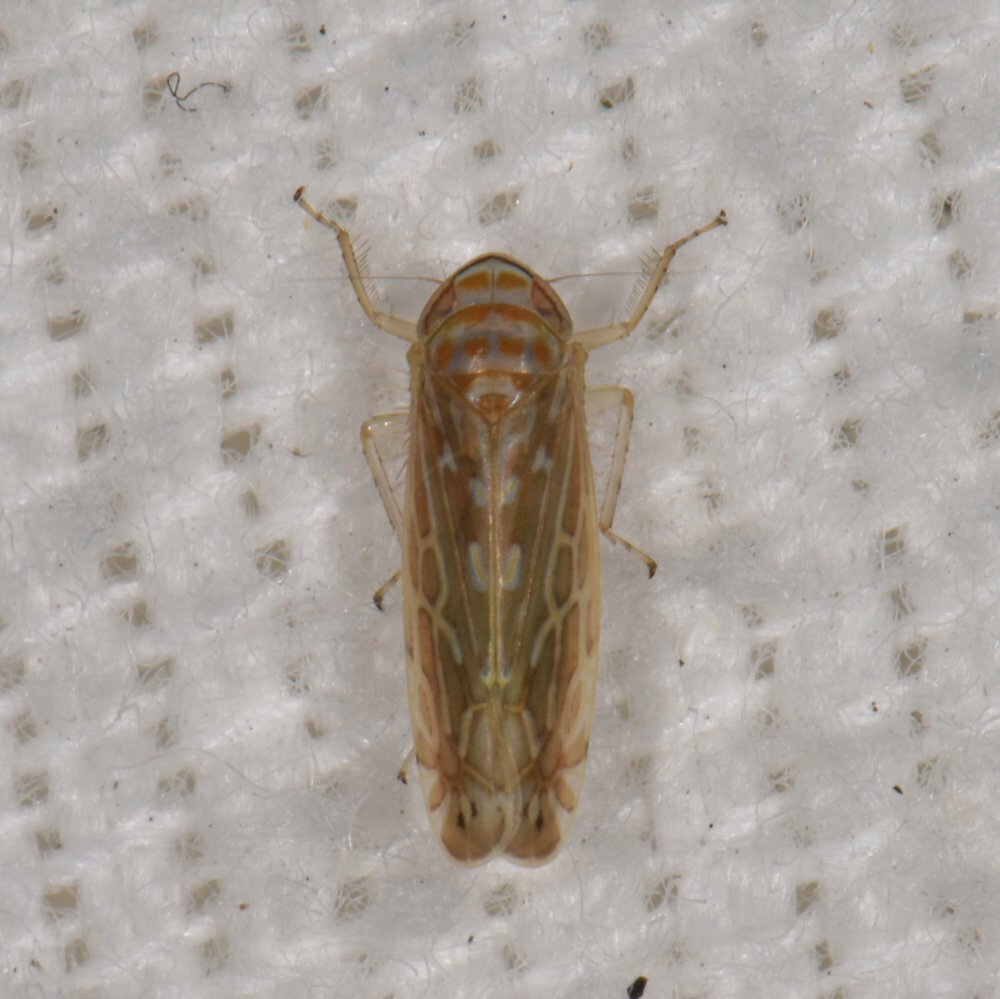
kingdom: Animalia
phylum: Arthropoda
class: Insecta
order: Hemiptera
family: Cicadellidae
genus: Paralimnus
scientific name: Paralimnus phragmitis
